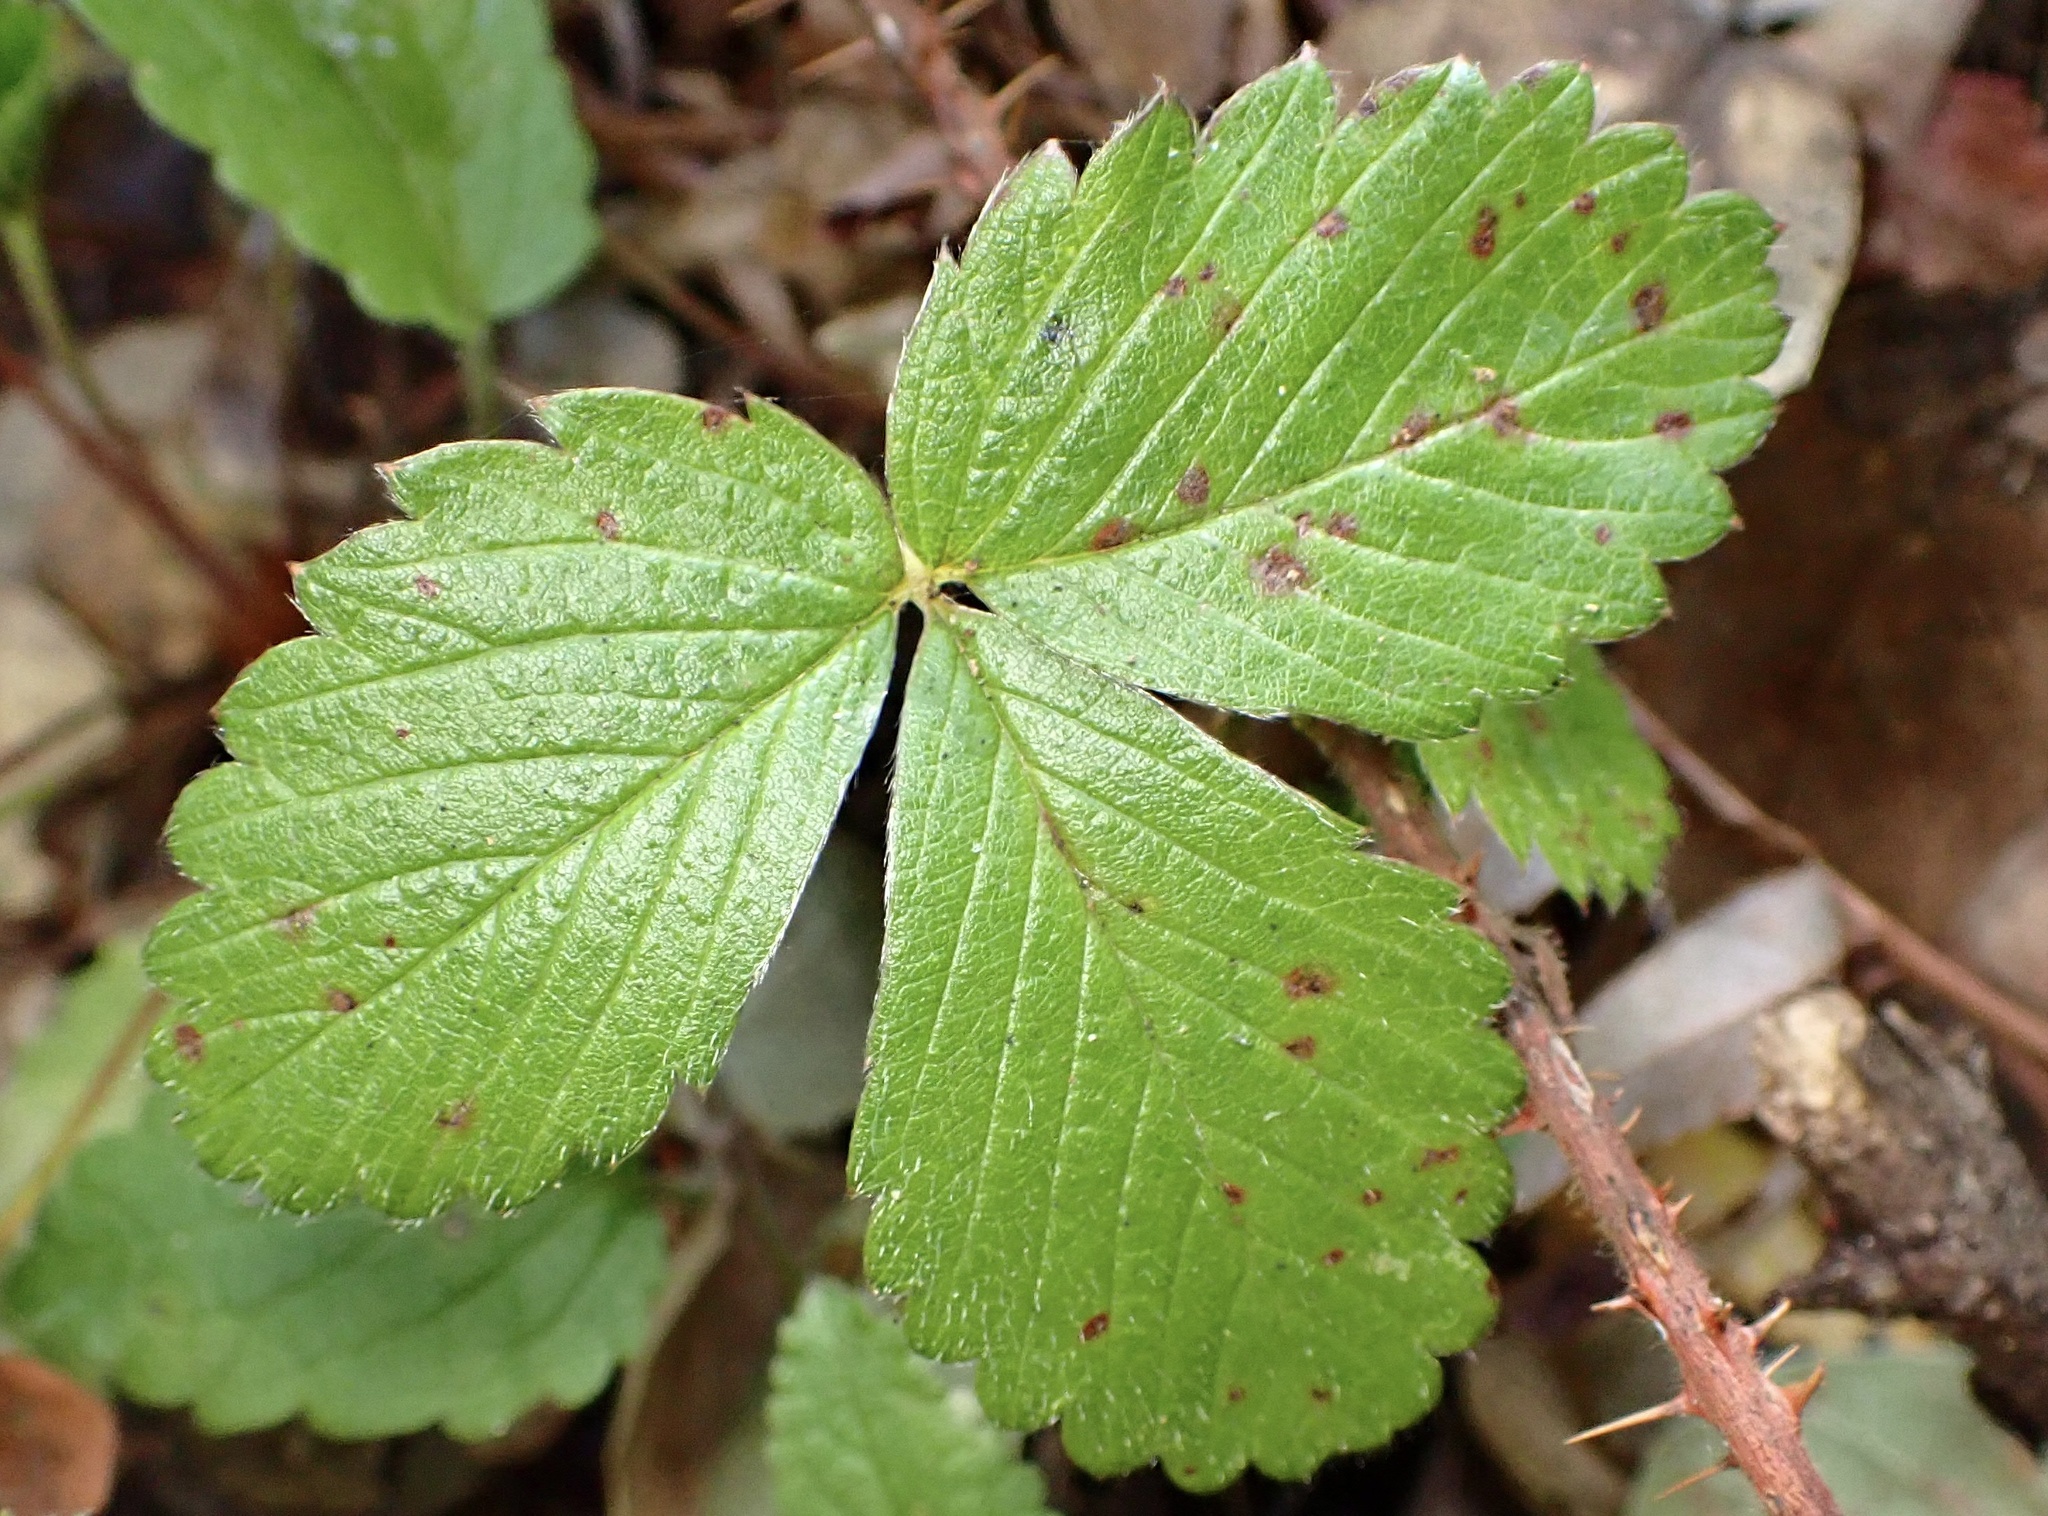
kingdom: Plantae
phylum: Tracheophyta
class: Magnoliopsida
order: Rosales
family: Rosaceae
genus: Fragaria
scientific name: Fragaria vesca
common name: Wild strawberry
